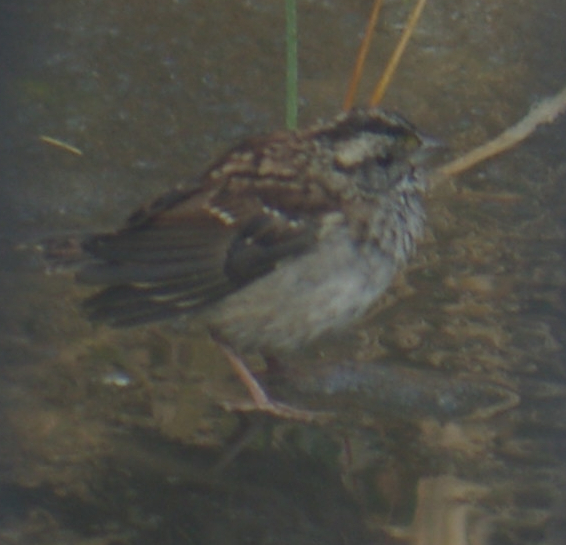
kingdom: Animalia
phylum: Chordata
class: Aves
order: Passeriformes
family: Passerellidae
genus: Zonotrichia
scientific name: Zonotrichia albicollis
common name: White-throated sparrow
